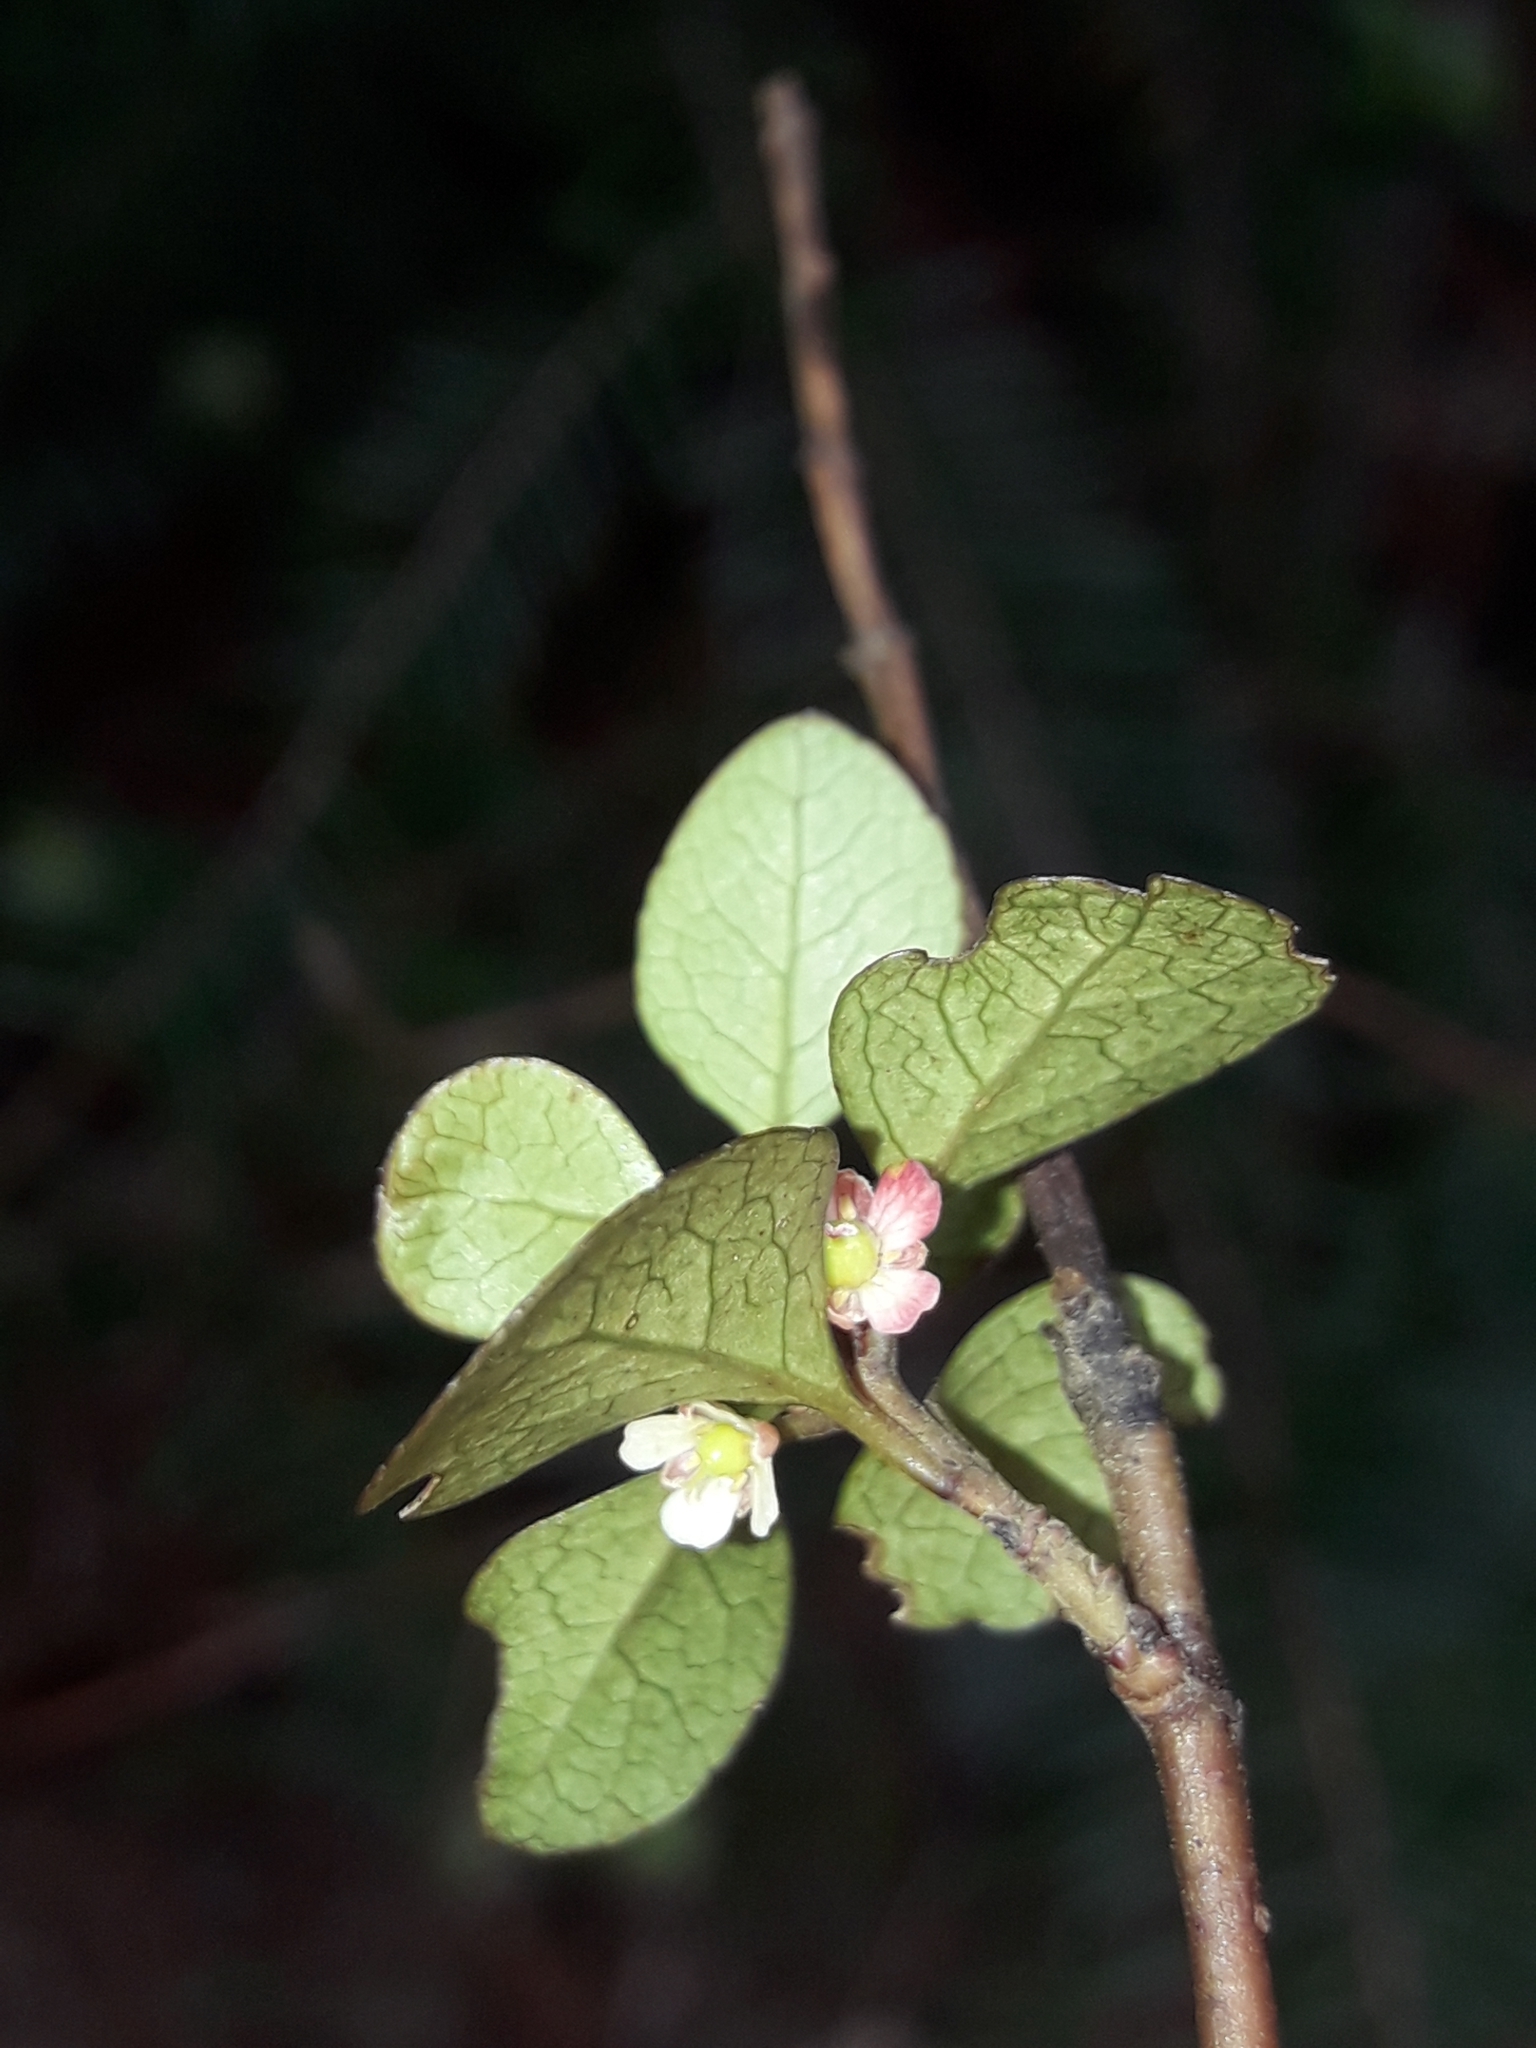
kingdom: Plantae
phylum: Tracheophyta
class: Magnoliopsida
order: Oxalidales
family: Elaeocarpaceae
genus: Aristotelia
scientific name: Aristotelia fruticosa
